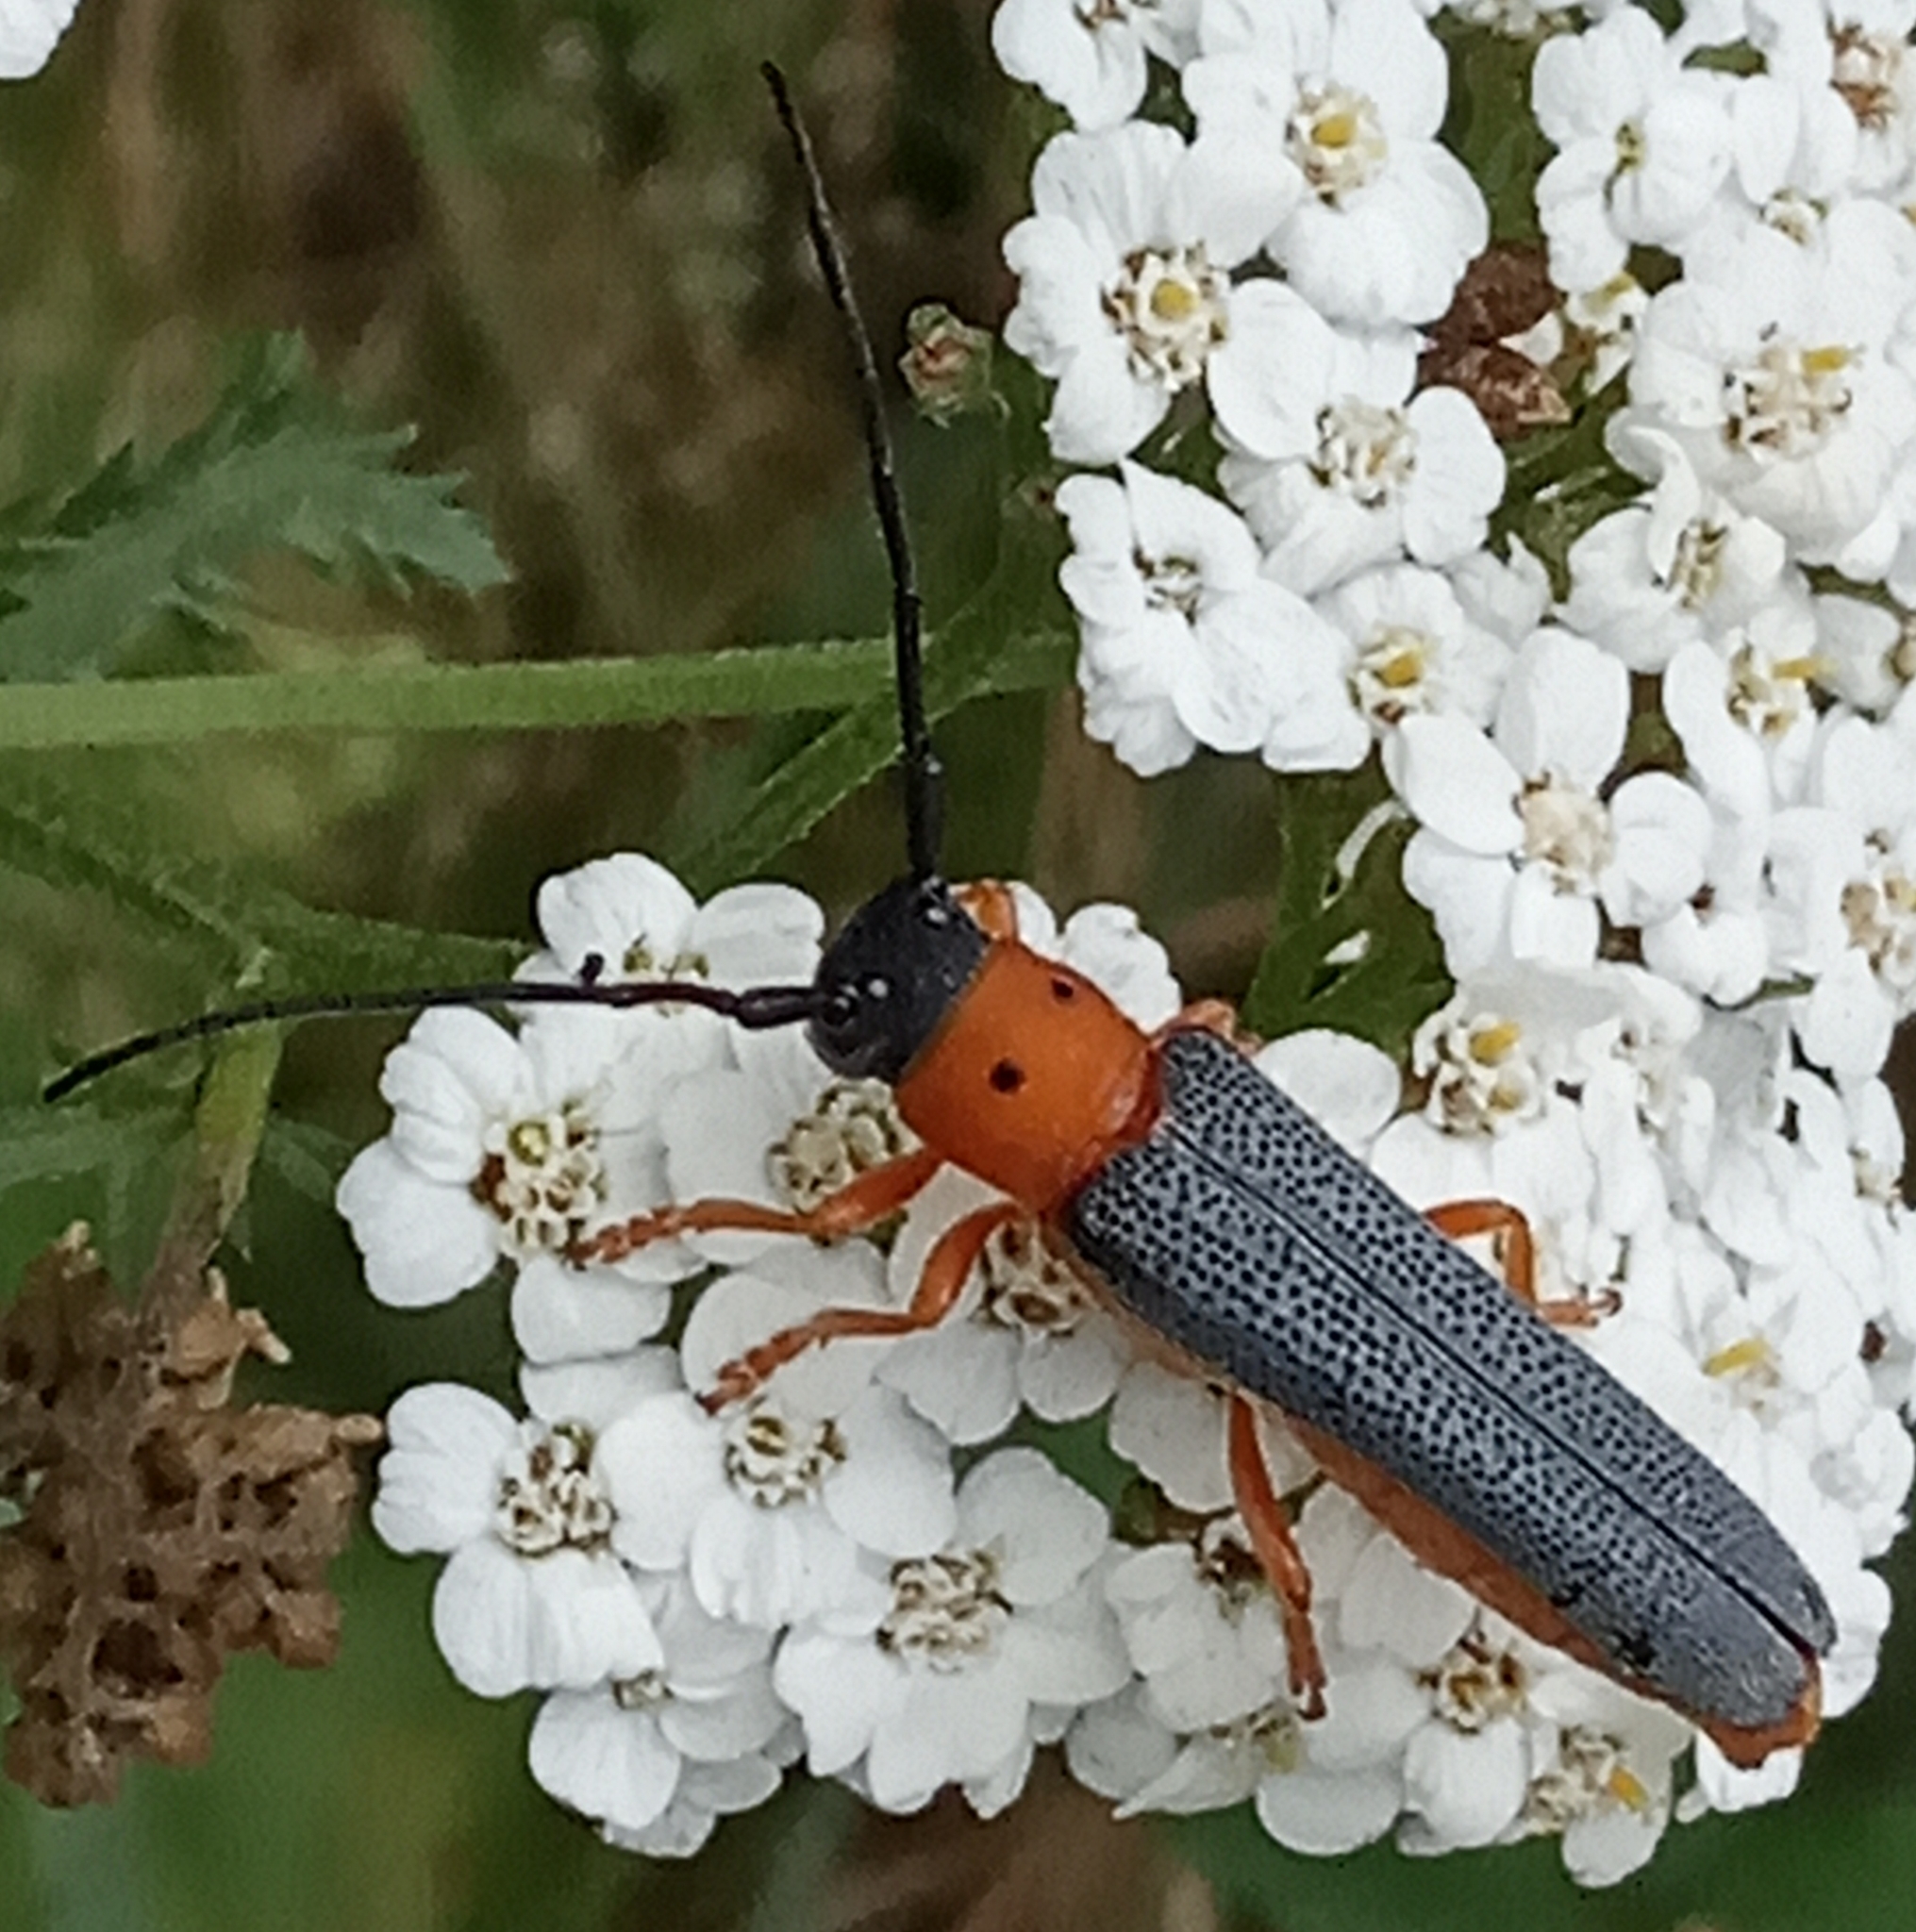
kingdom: Animalia
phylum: Arthropoda
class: Insecta
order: Coleoptera
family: Cerambycidae
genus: Oberea
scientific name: Oberea oculata
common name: Eyed longhorn beetle
